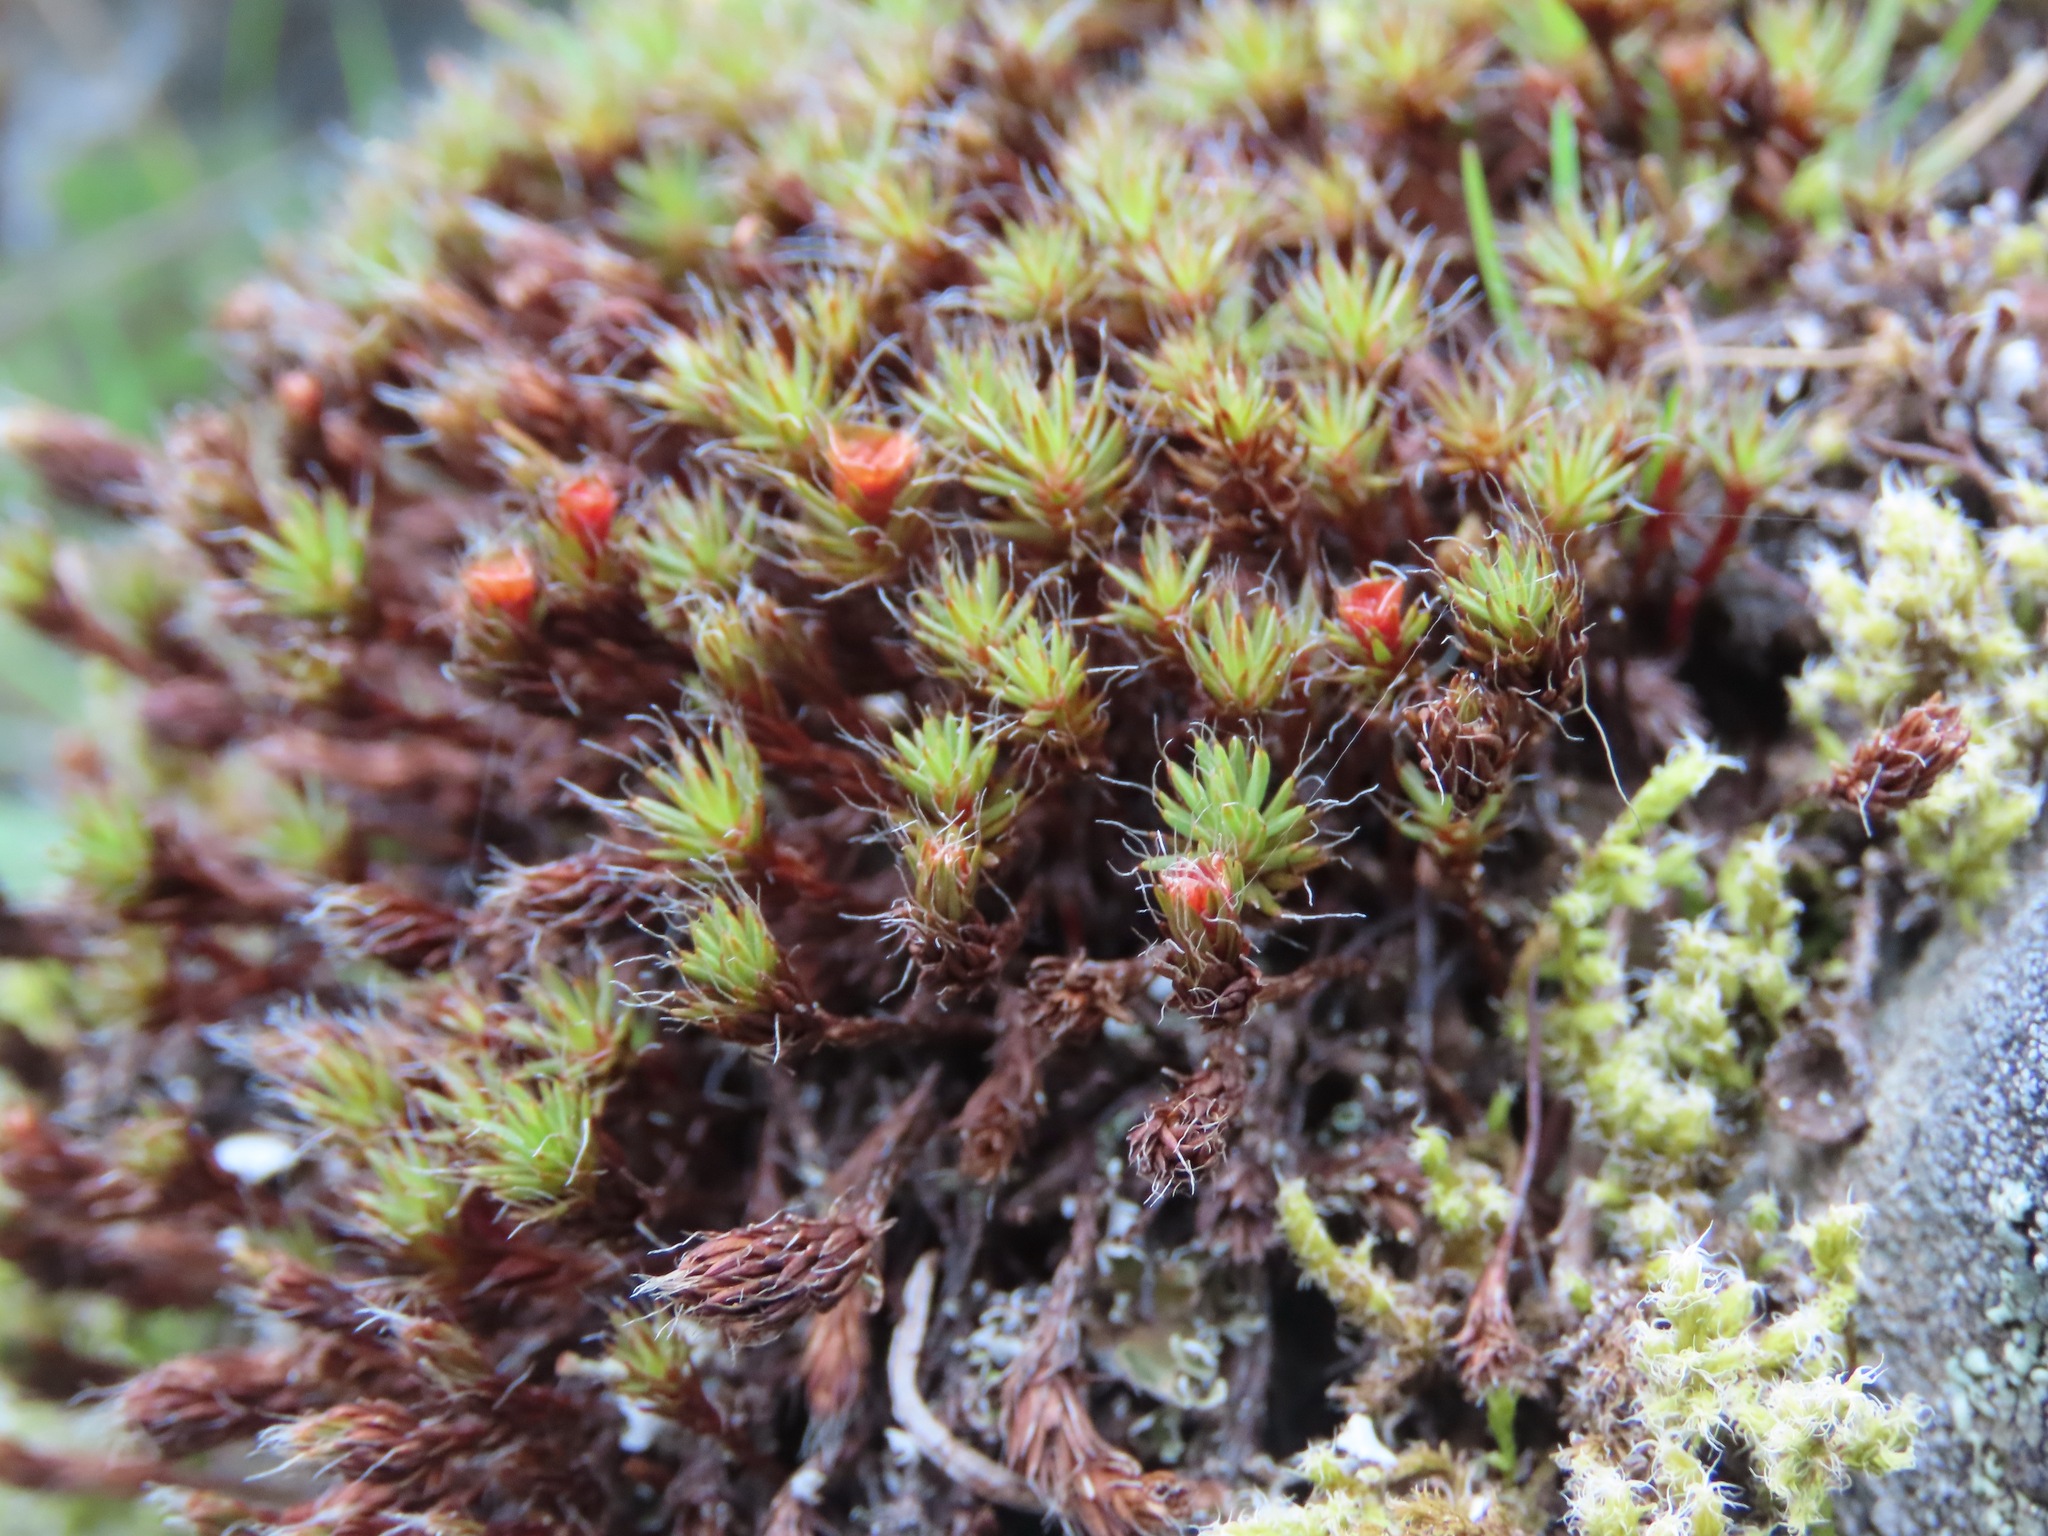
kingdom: Plantae
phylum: Bryophyta
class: Polytrichopsida
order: Polytrichales
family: Polytrichaceae
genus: Polytrichum
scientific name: Polytrichum piliferum
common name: Bristly haircap
